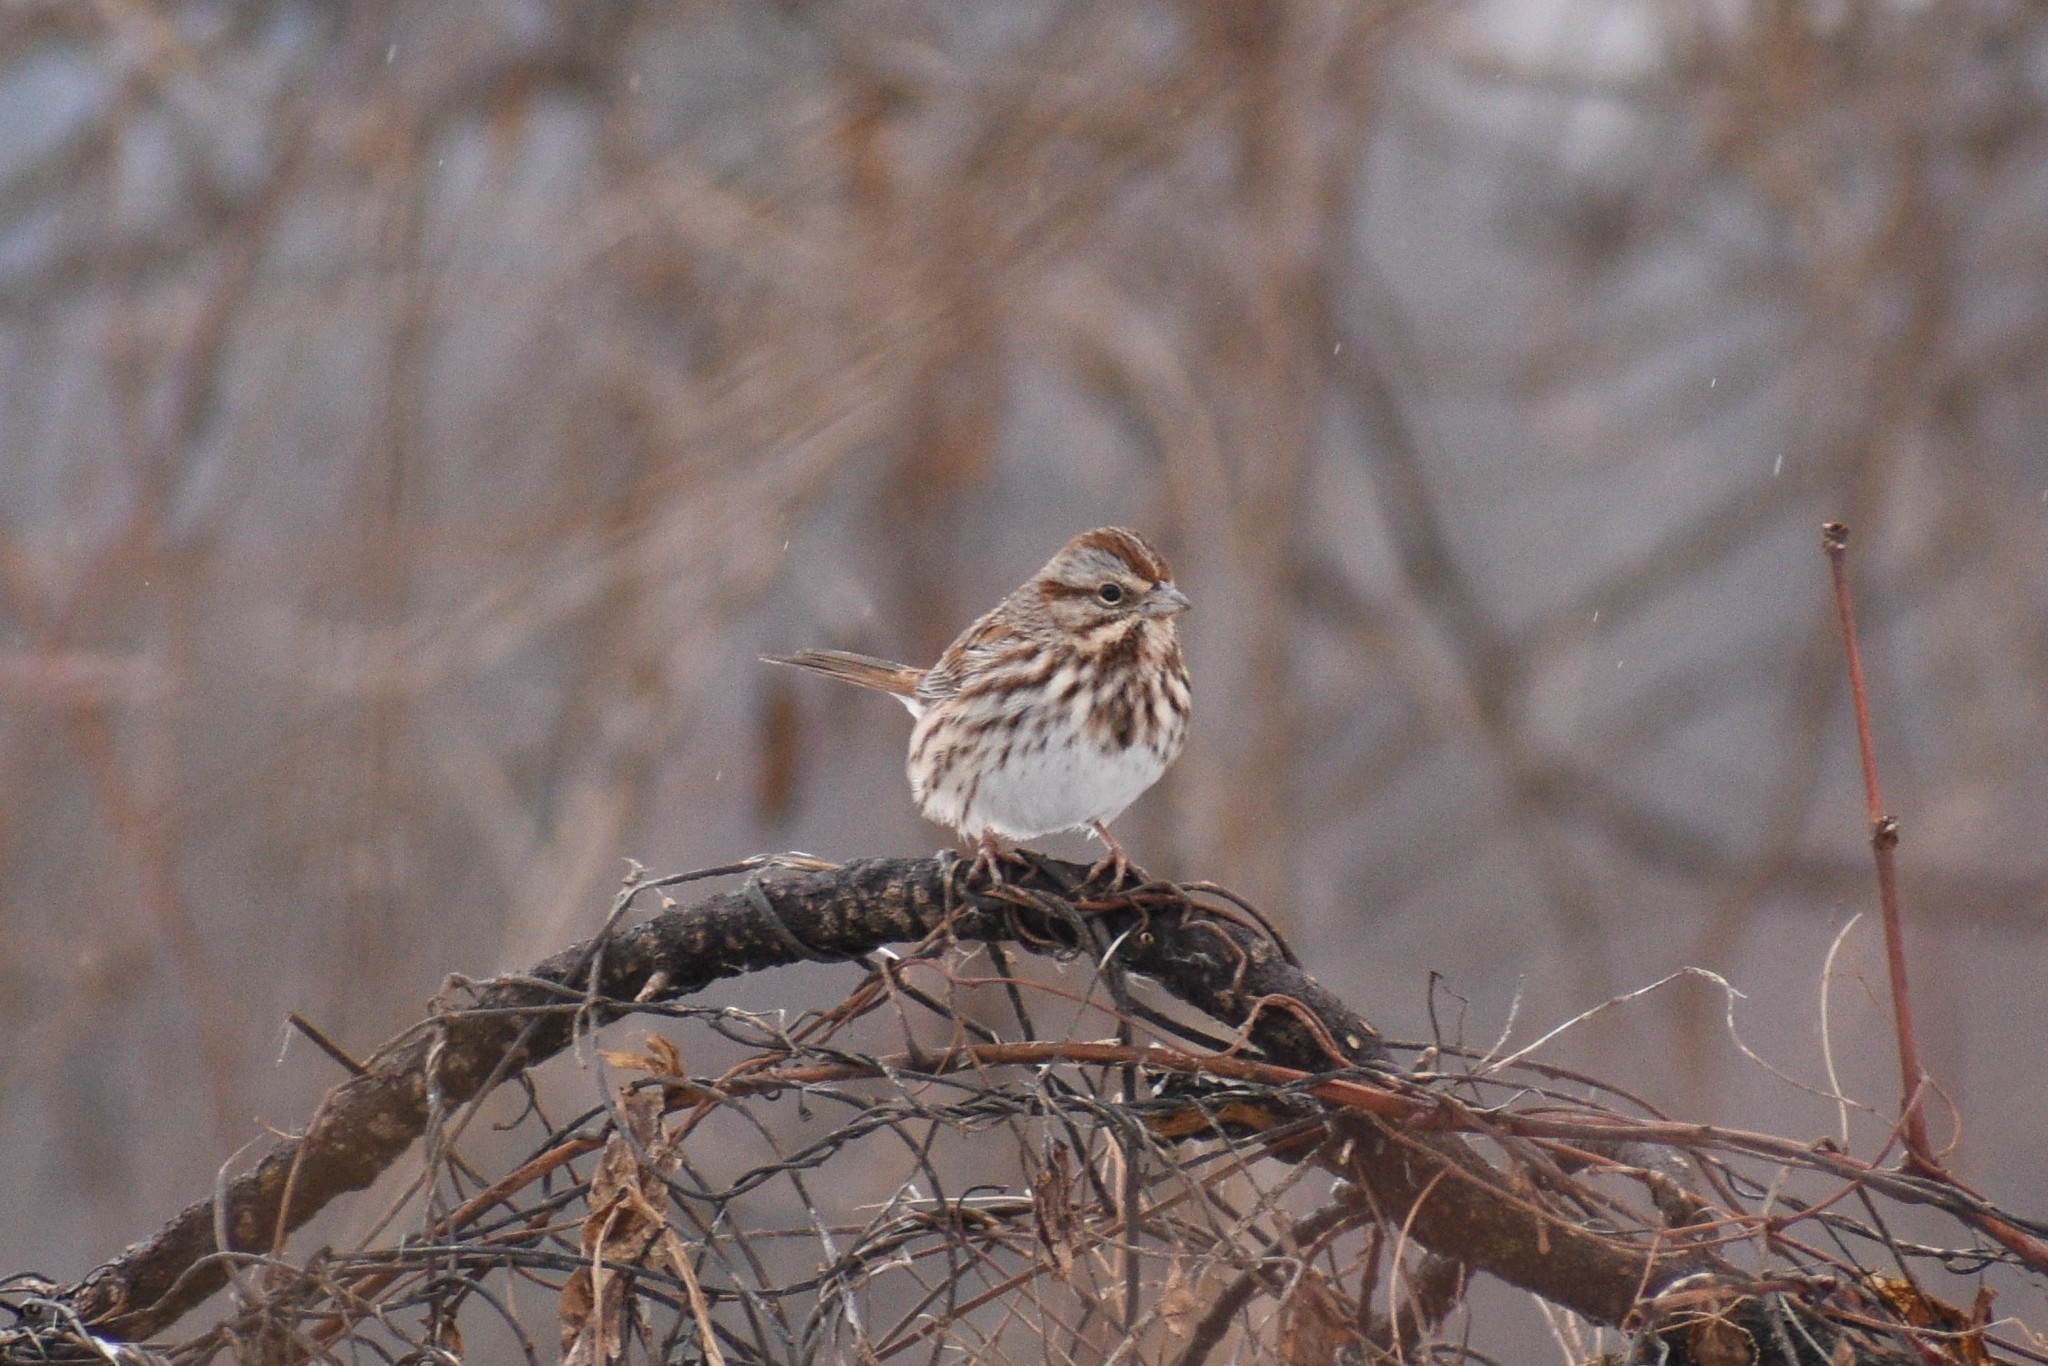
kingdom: Animalia
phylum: Chordata
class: Aves
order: Passeriformes
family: Passerellidae
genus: Melospiza
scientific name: Melospiza melodia
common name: Song sparrow
